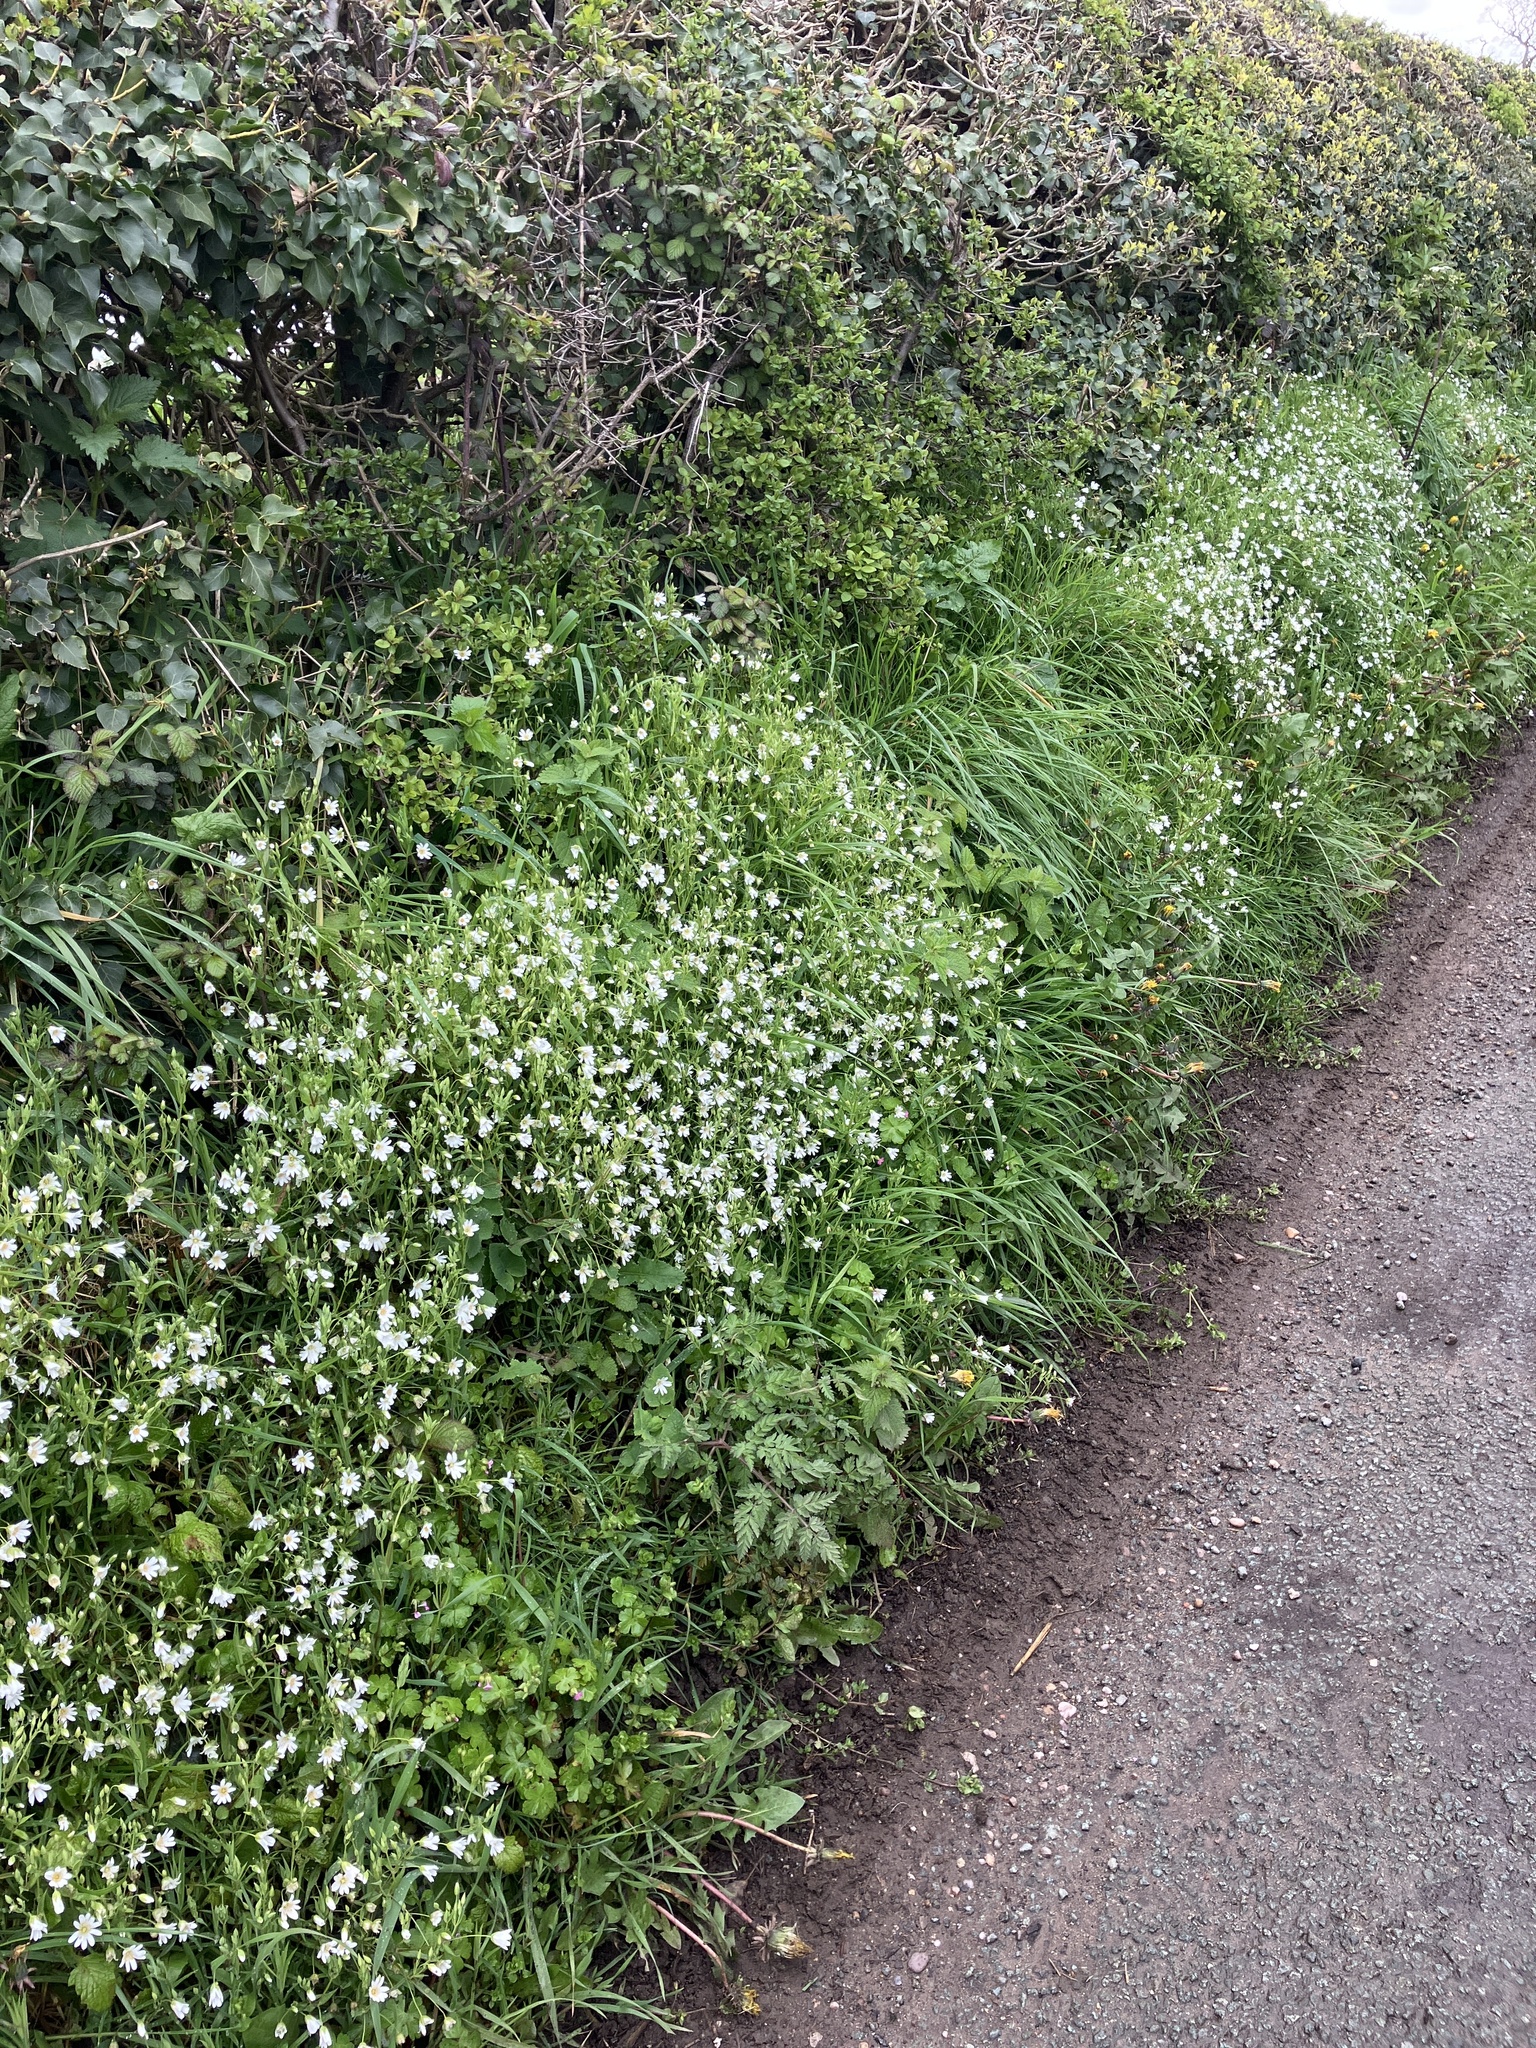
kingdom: Plantae
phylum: Tracheophyta
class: Magnoliopsida
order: Caryophyllales
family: Caryophyllaceae
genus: Rabelera
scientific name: Rabelera holostea
